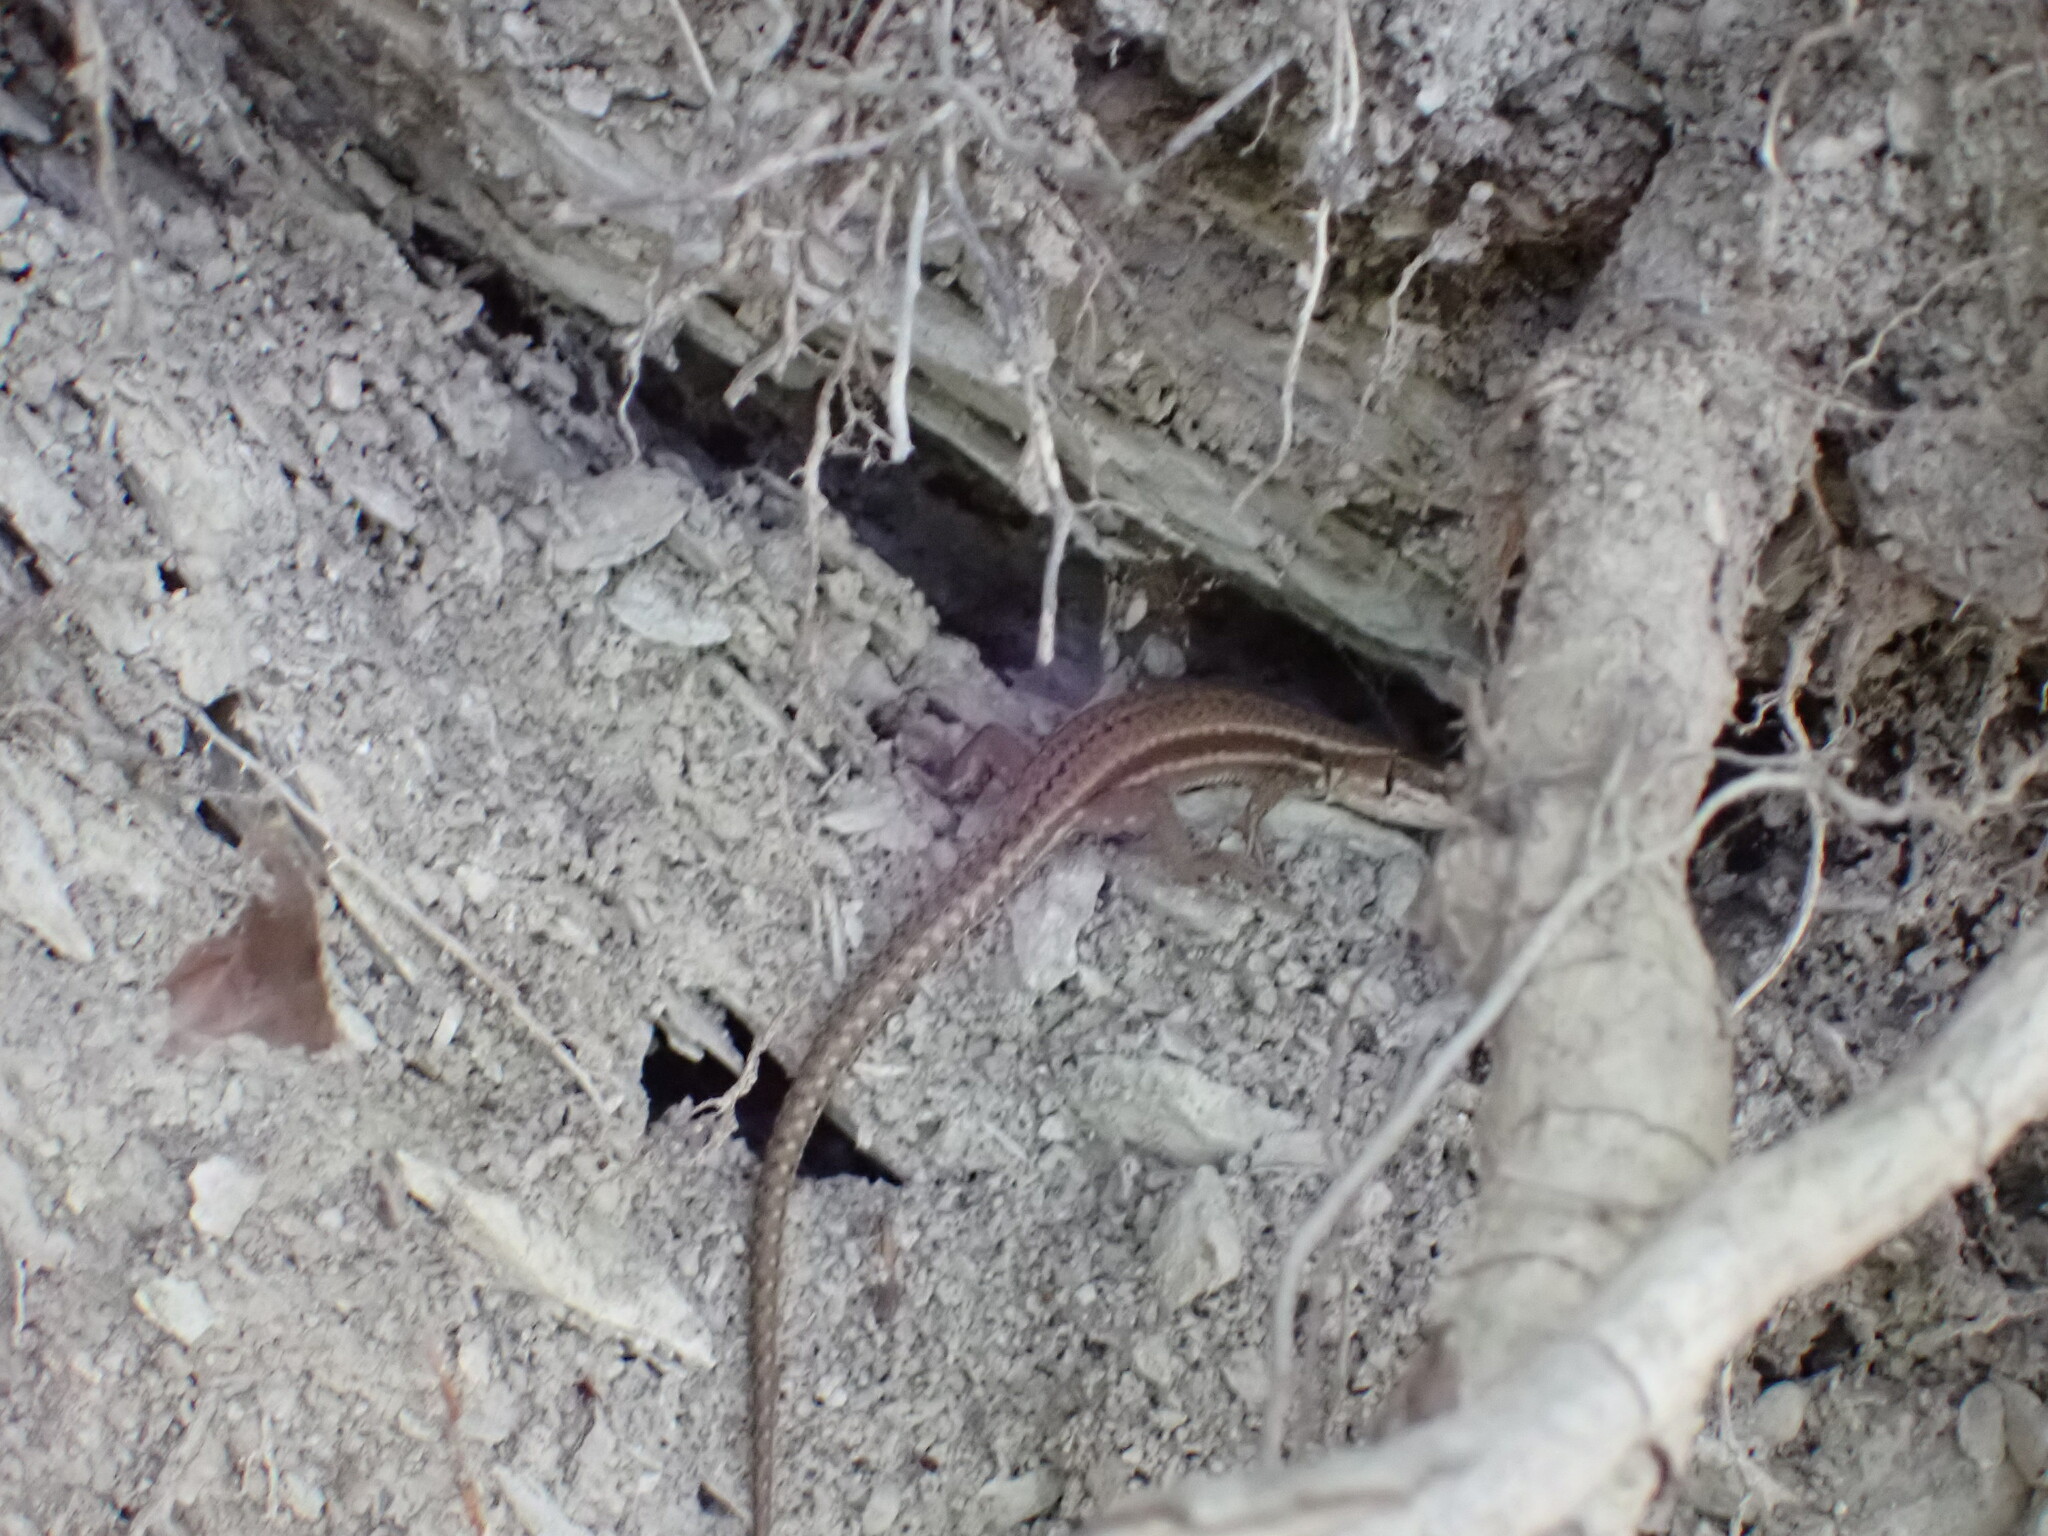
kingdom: Animalia
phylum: Chordata
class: Squamata
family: Lacertidae
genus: Podarcis
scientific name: Podarcis muralis
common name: Common wall lizard
